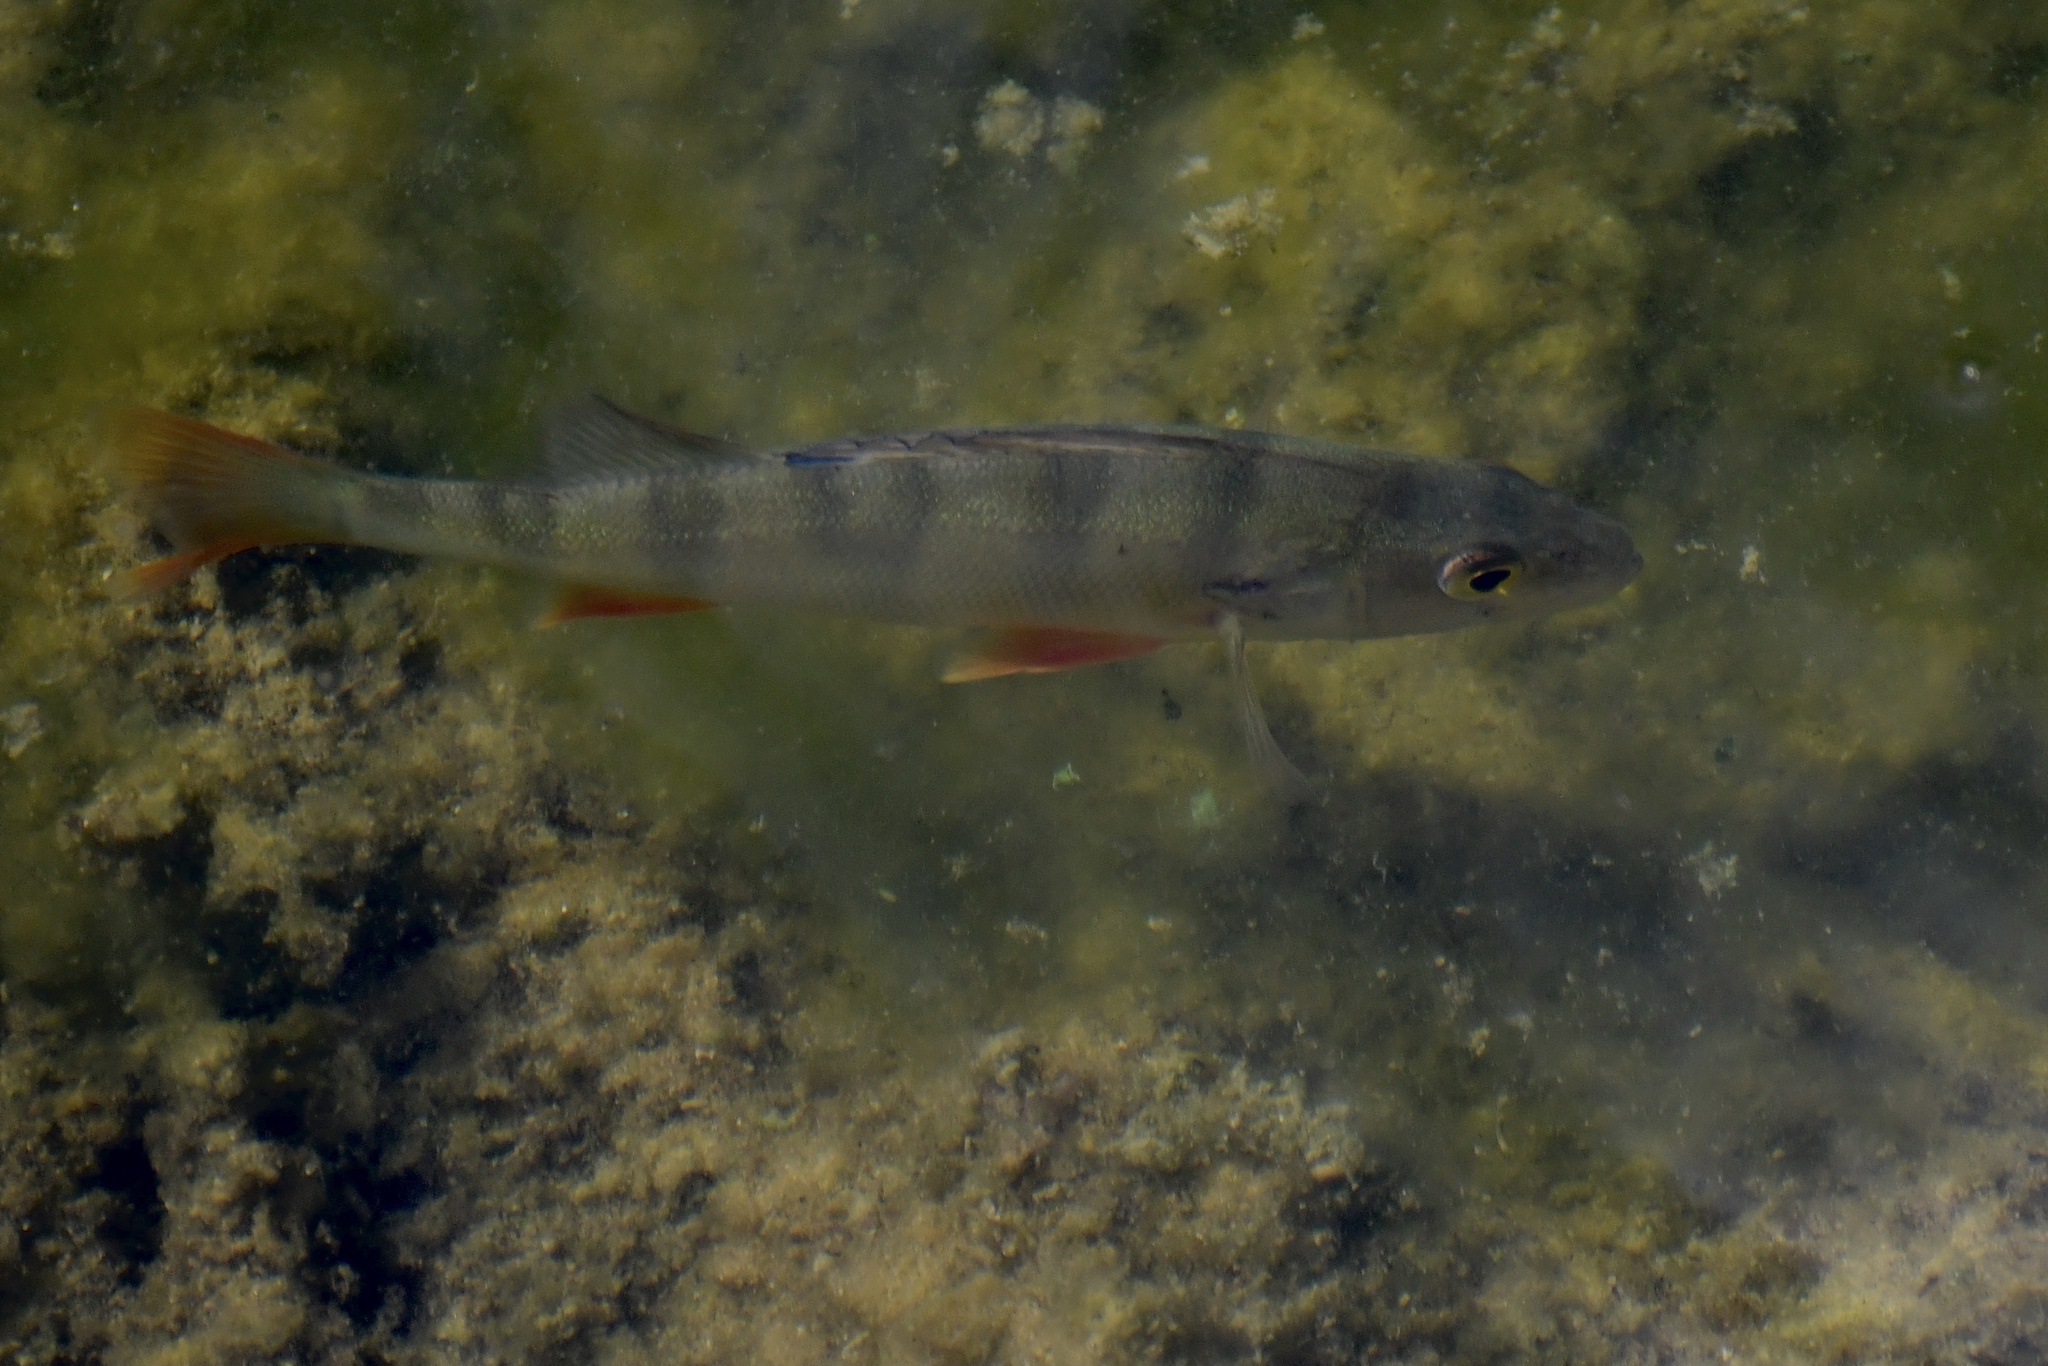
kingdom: Animalia
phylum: Chordata
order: Perciformes
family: Percidae
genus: Perca
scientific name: Perca fluviatilis
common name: Perch
